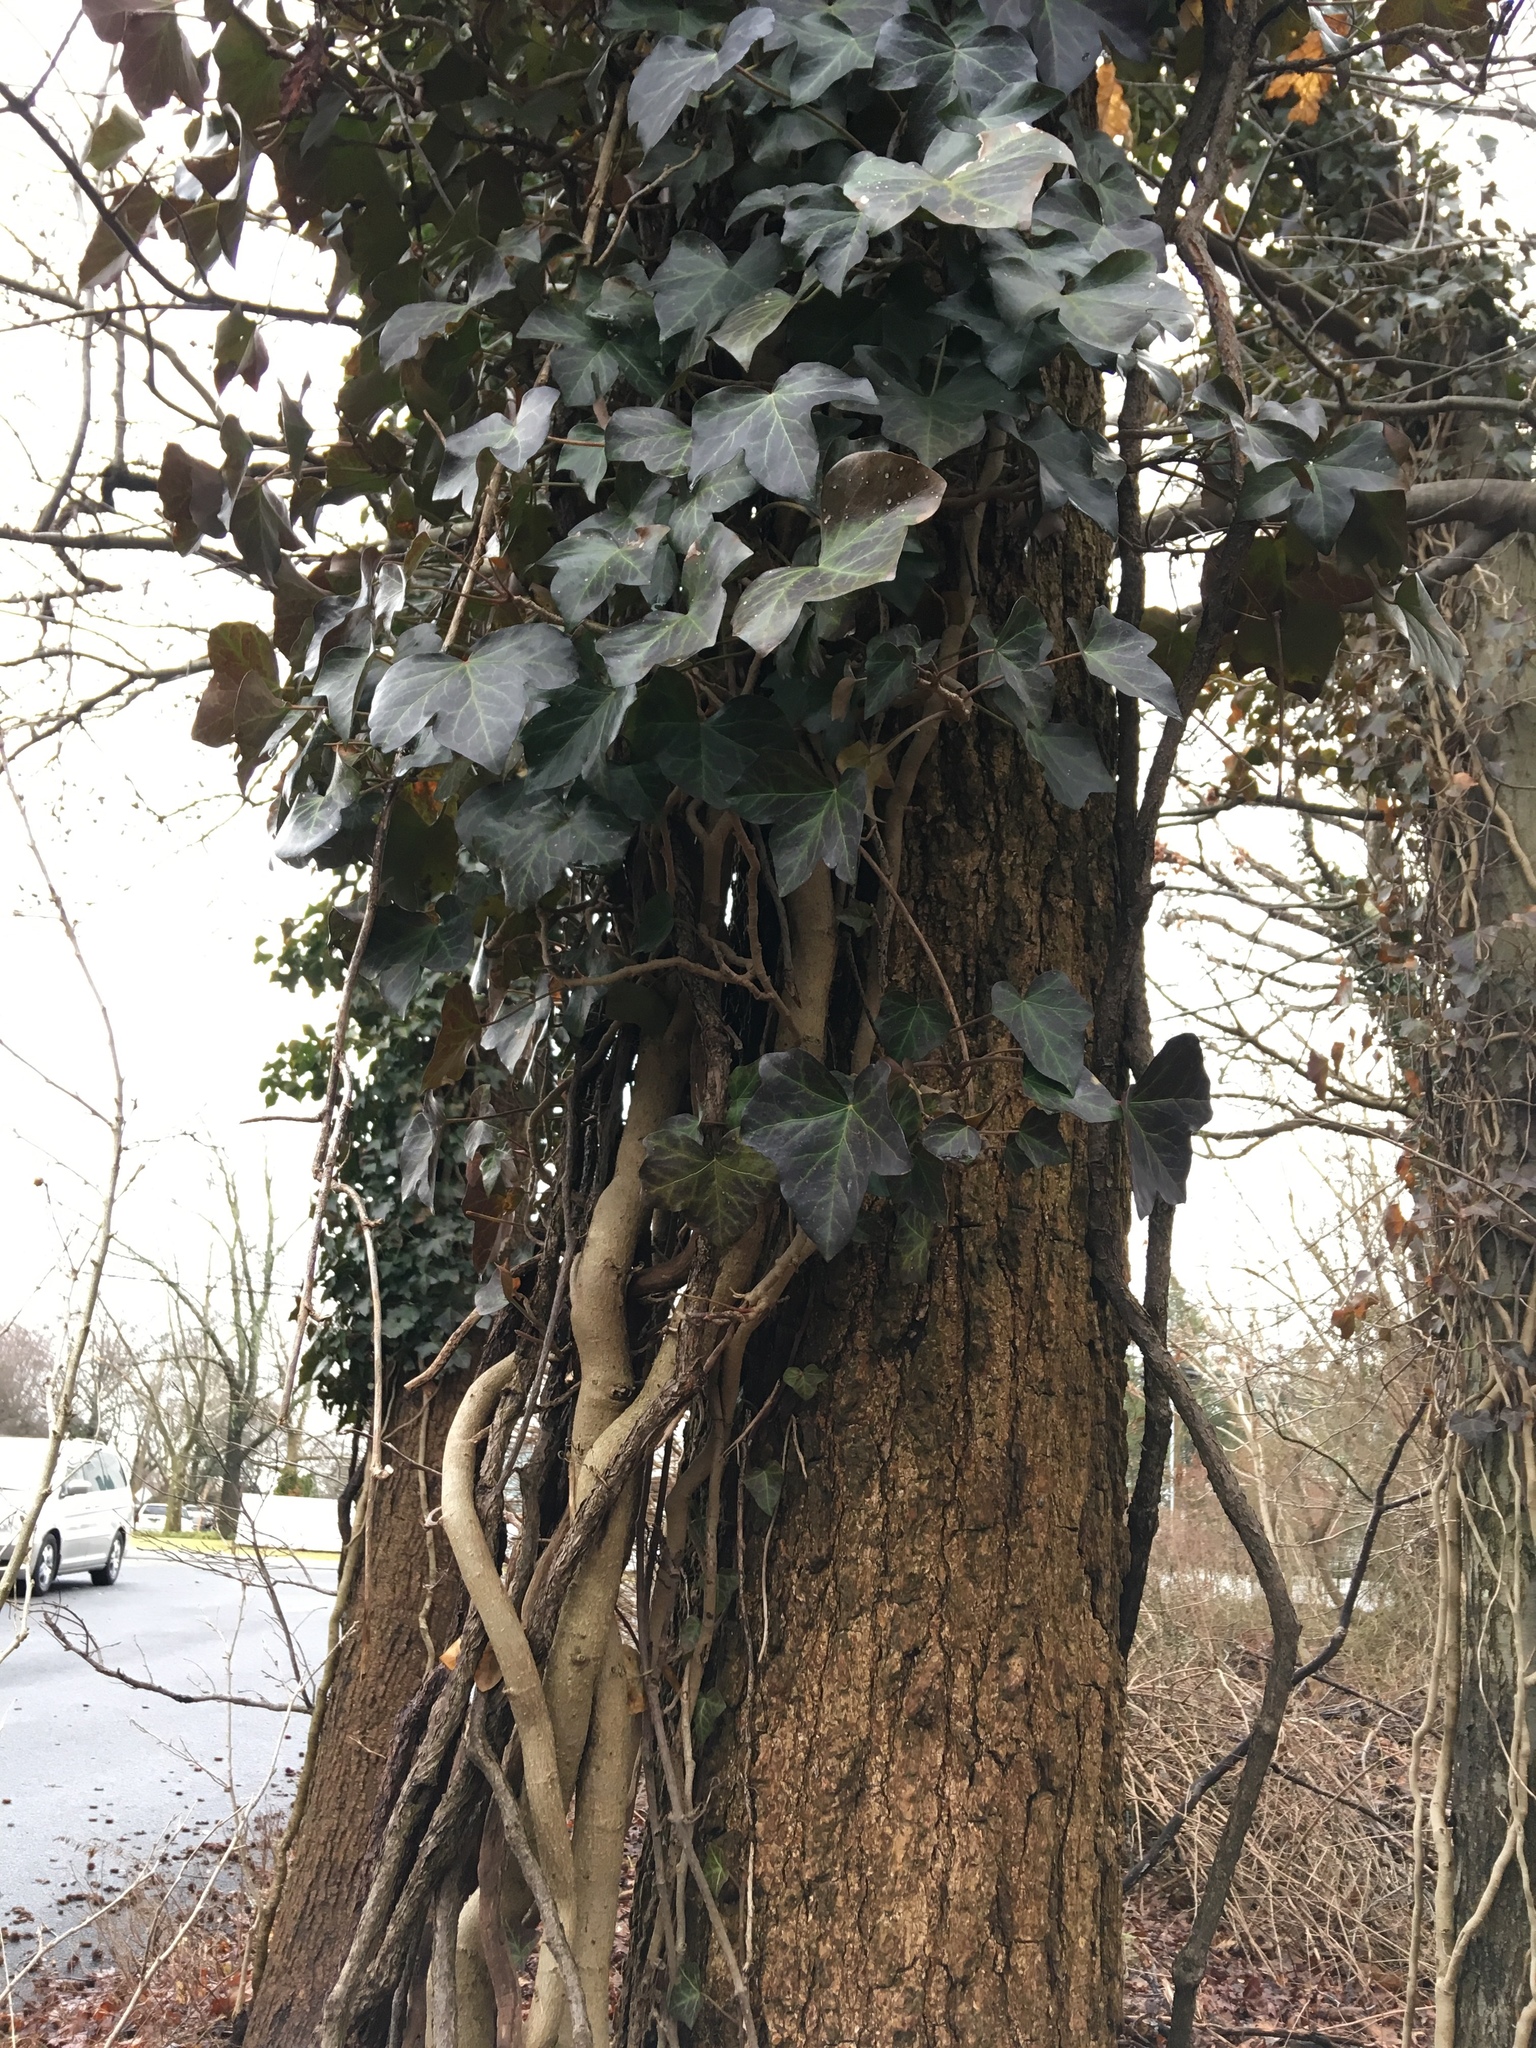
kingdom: Plantae
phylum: Tracheophyta
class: Magnoliopsida
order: Apiales
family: Araliaceae
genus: Hedera
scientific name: Hedera helix
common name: Ivy
